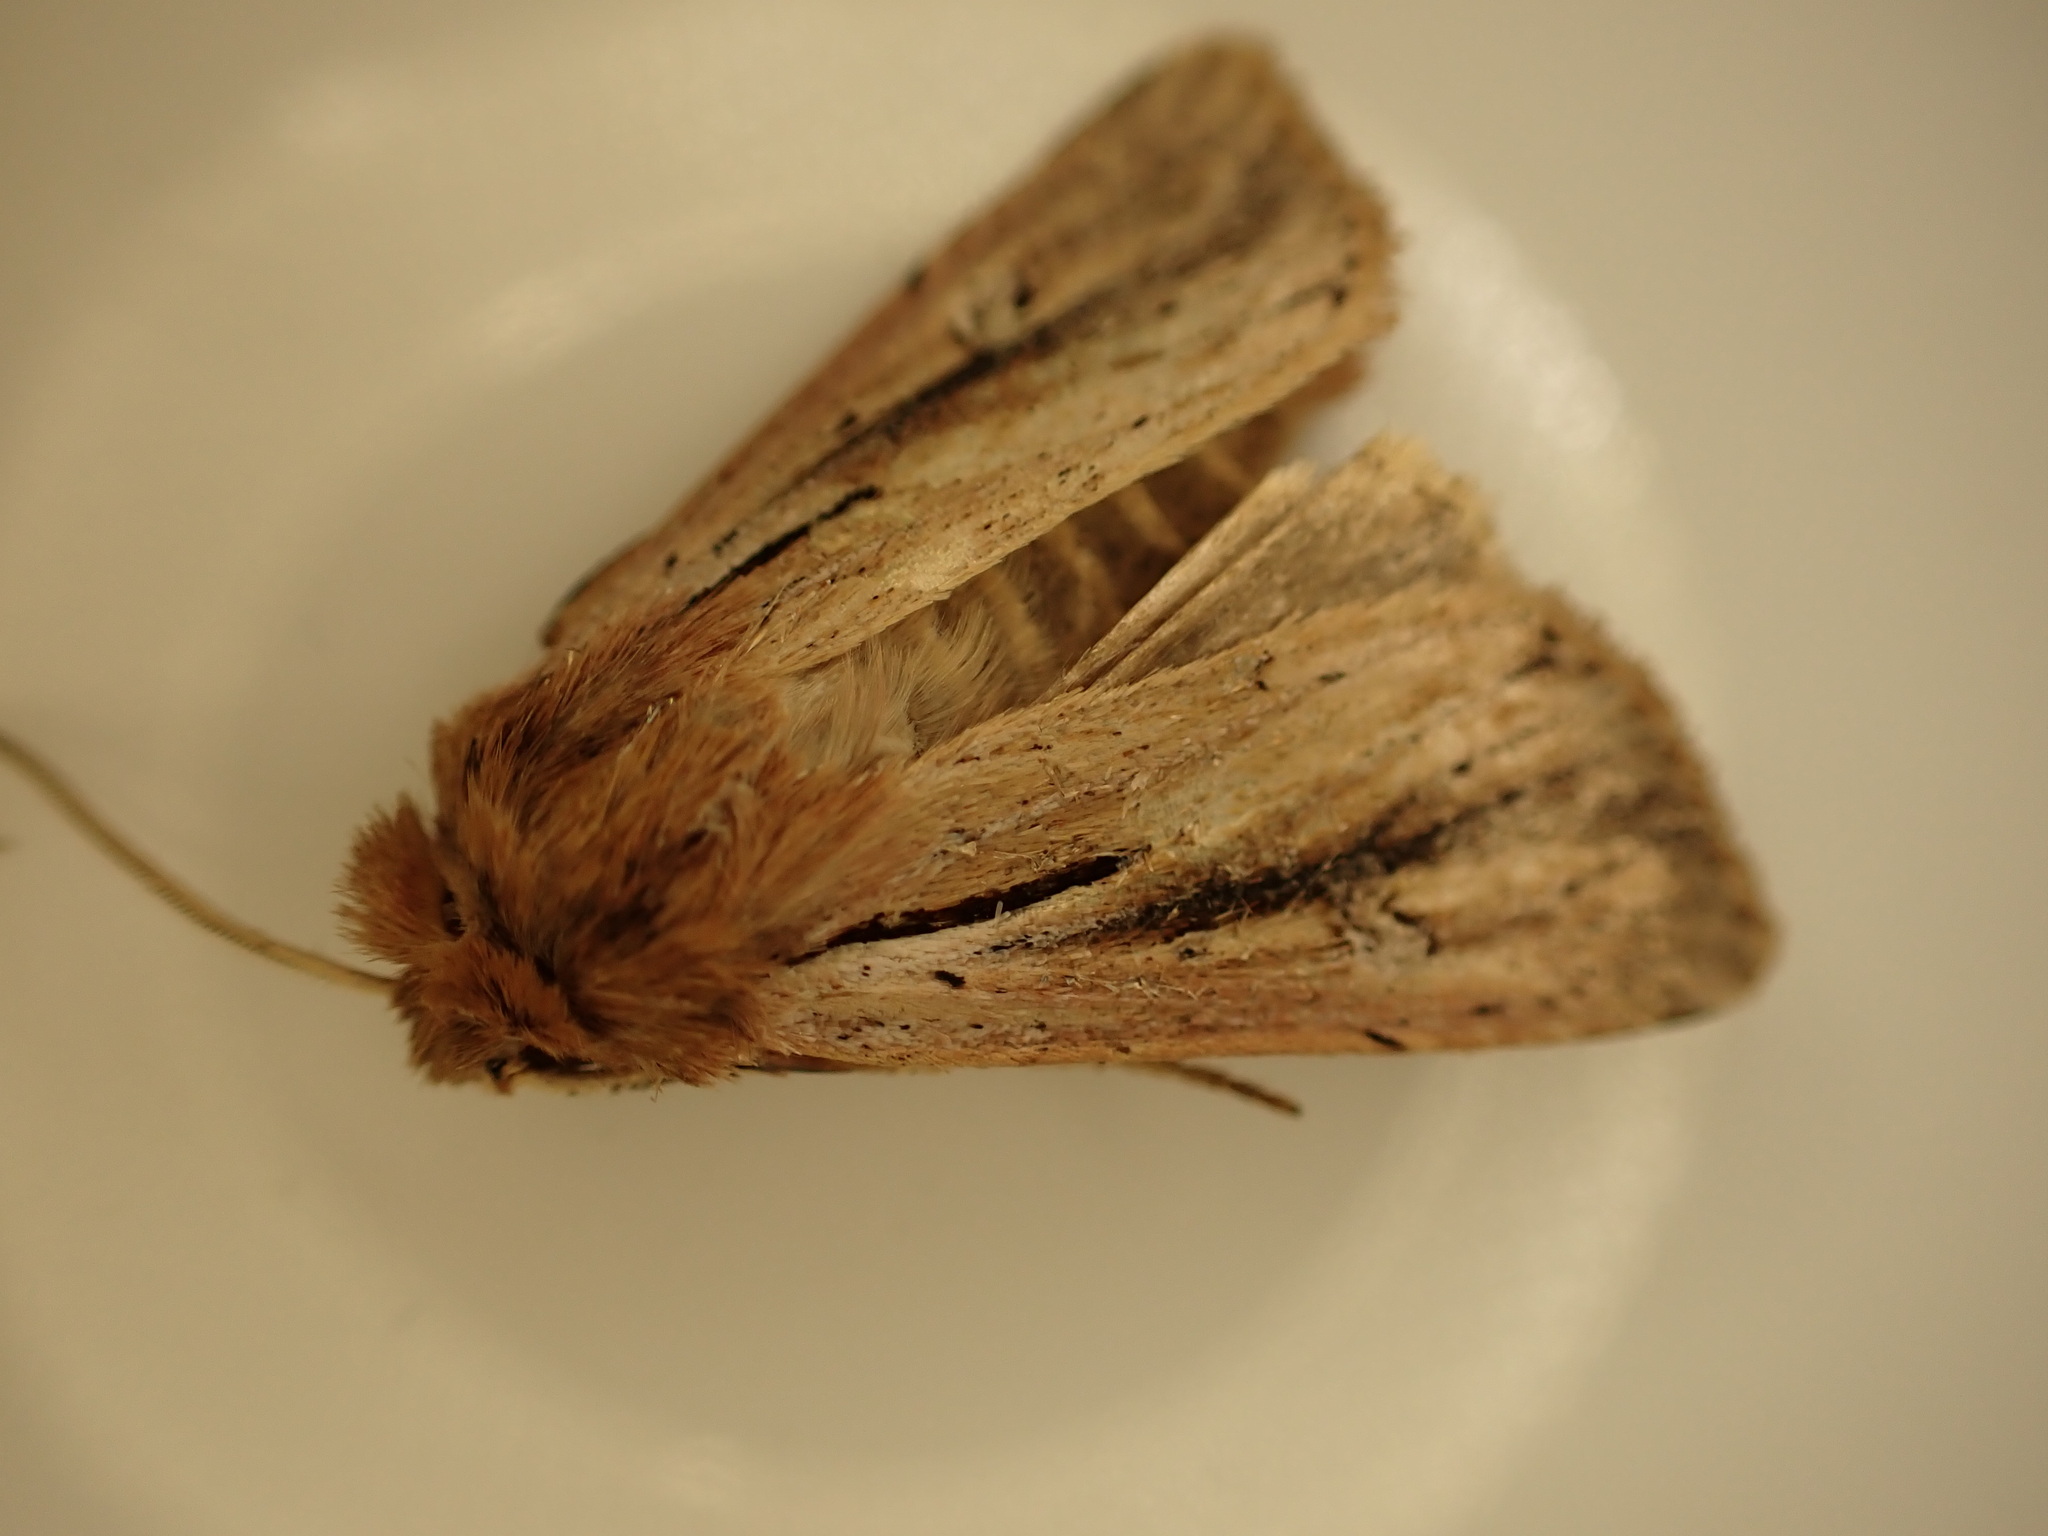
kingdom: Animalia
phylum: Arthropoda
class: Insecta
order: Lepidoptera
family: Noctuidae
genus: Ichneutica
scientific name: Ichneutica propria
